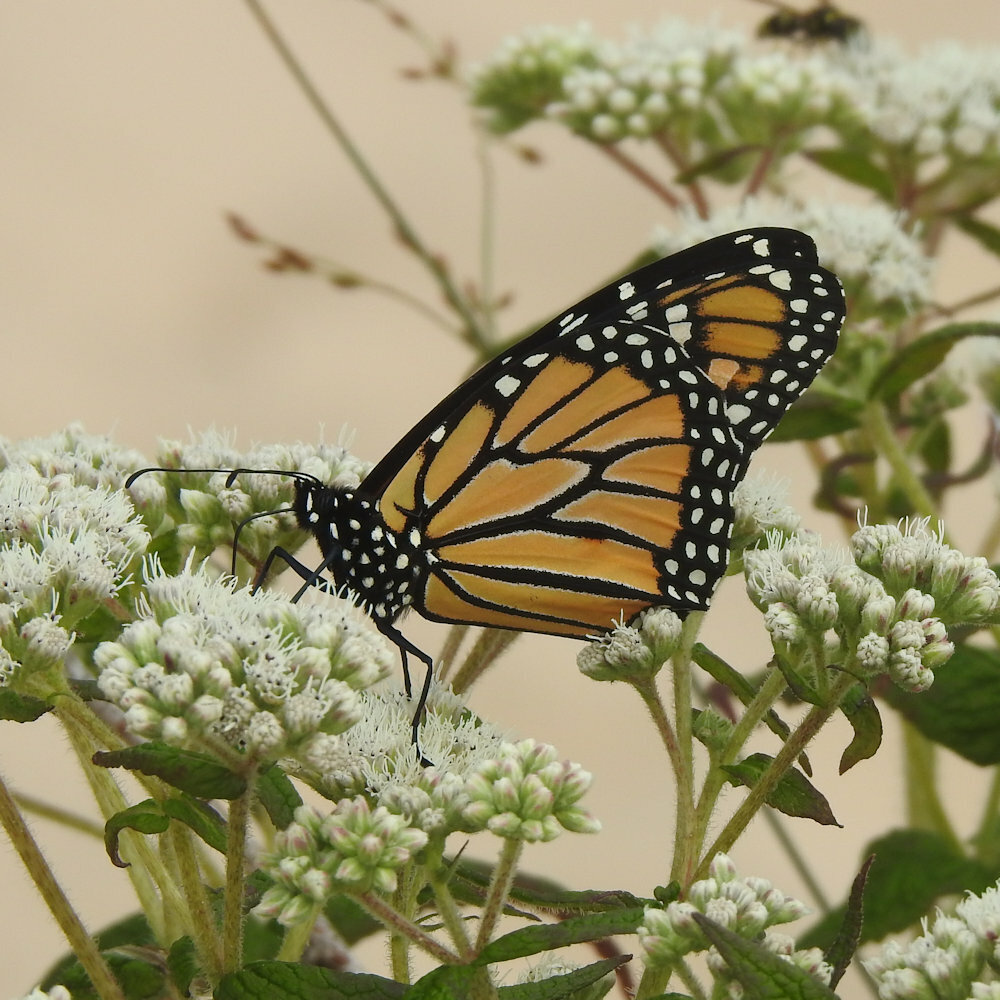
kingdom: Animalia
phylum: Arthropoda
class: Insecta
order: Lepidoptera
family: Nymphalidae
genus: Danaus
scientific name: Danaus plexippus
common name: Monarch
